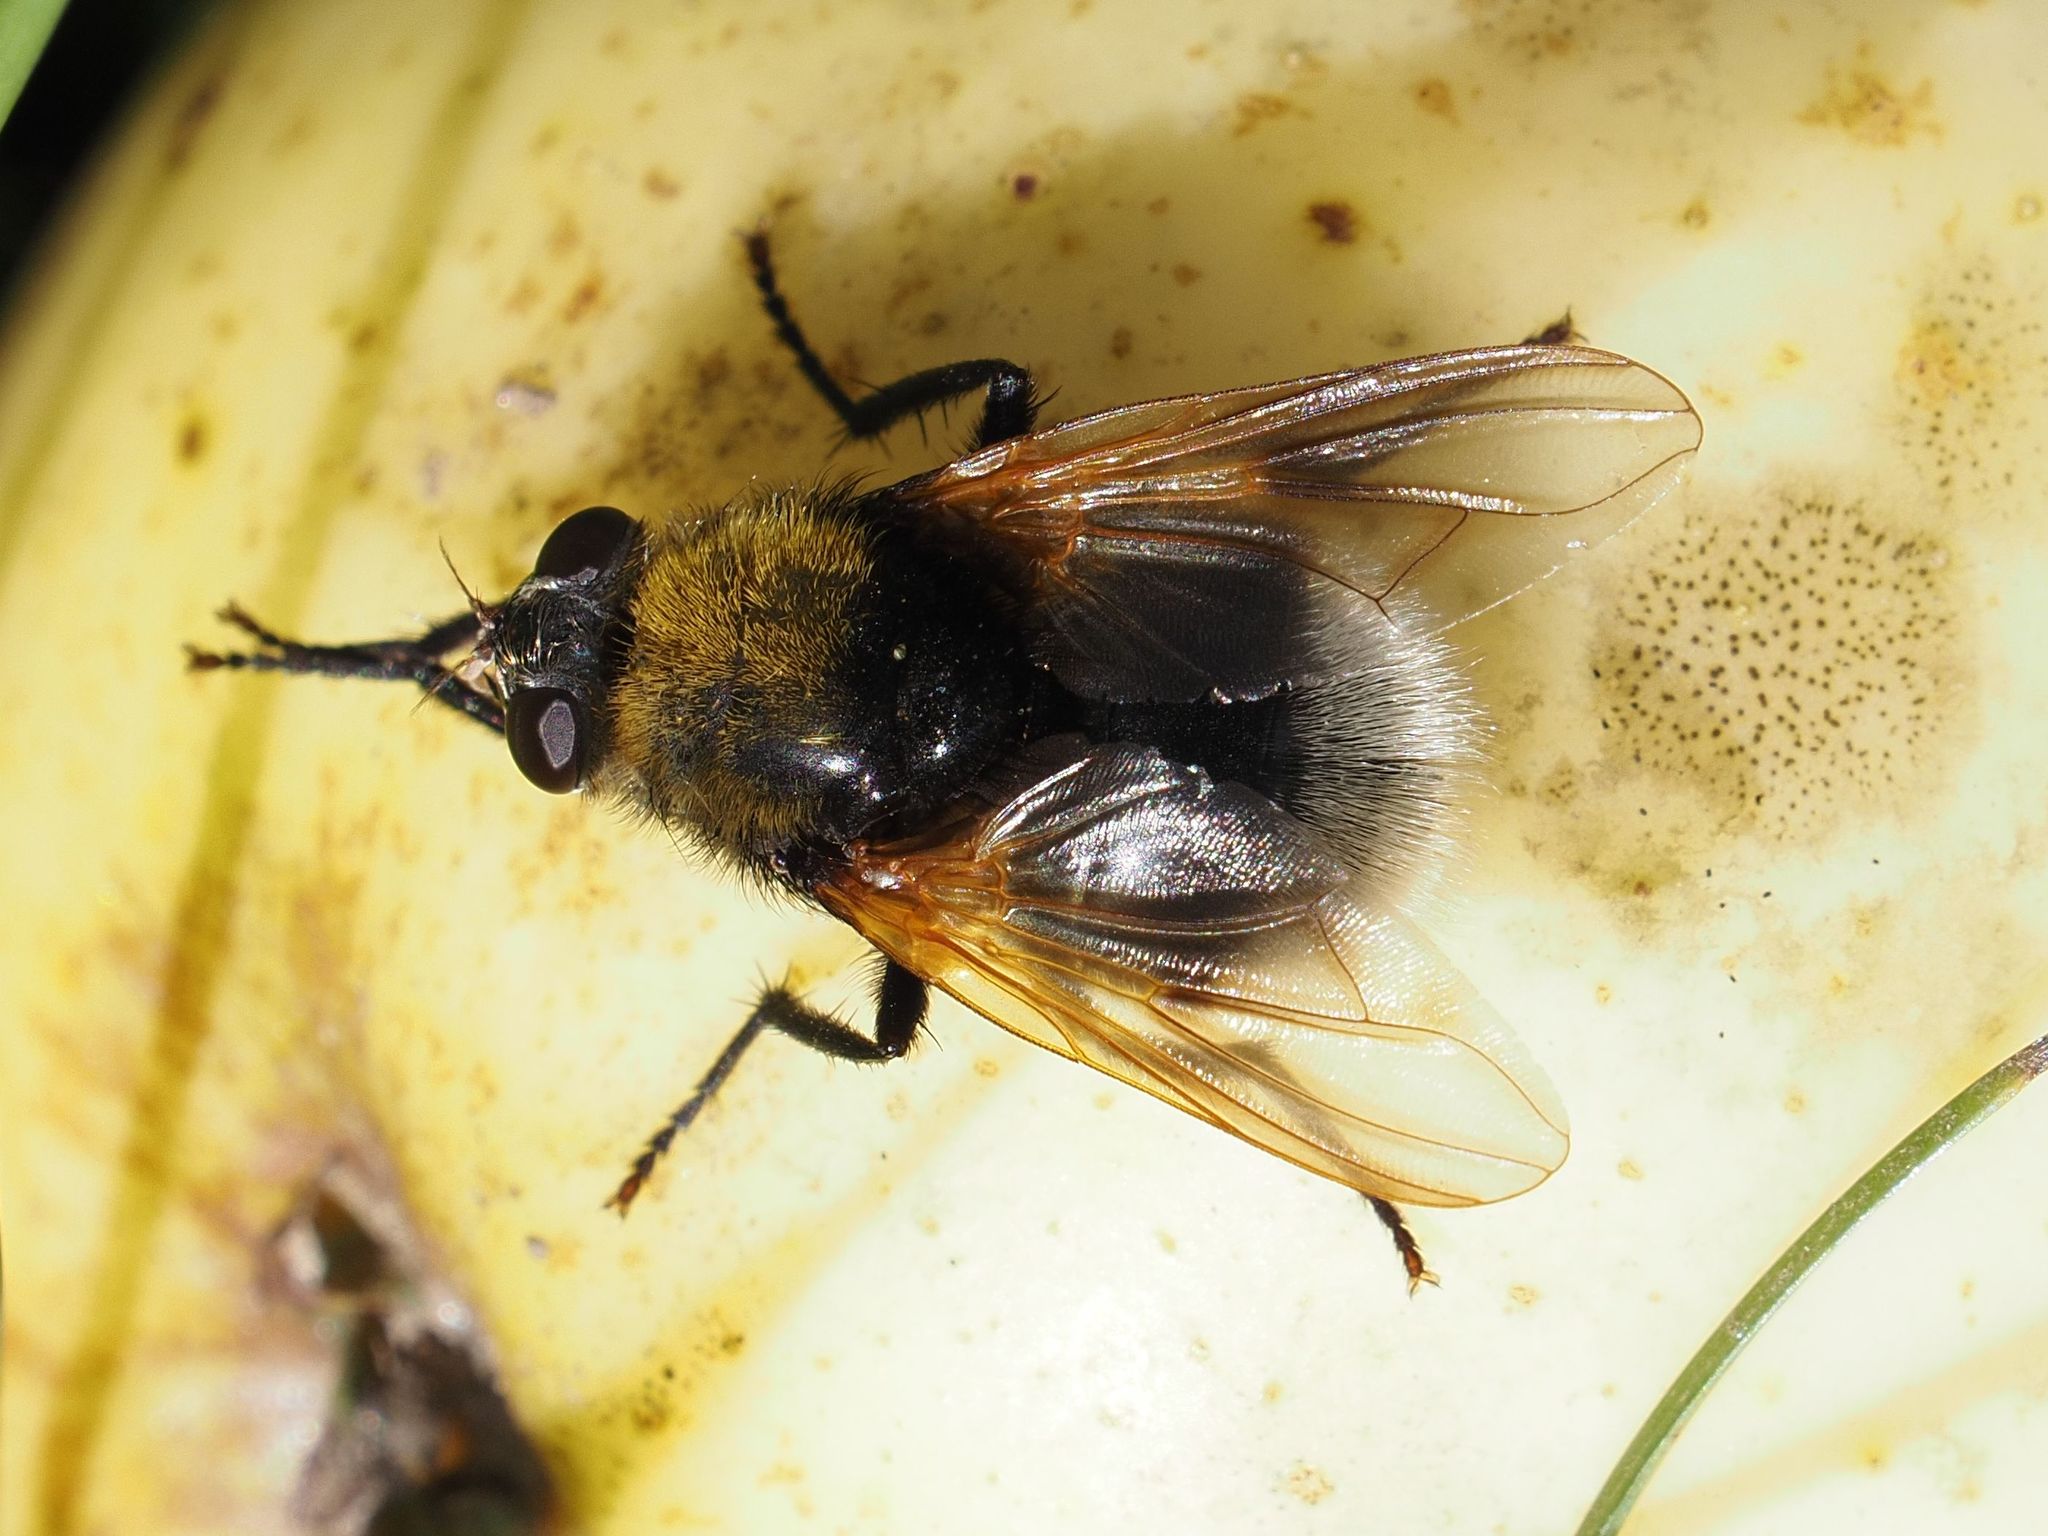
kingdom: Animalia
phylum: Arthropoda
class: Insecta
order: Diptera
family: Muscidae
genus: Mesembrina
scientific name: Mesembrina mystacea
